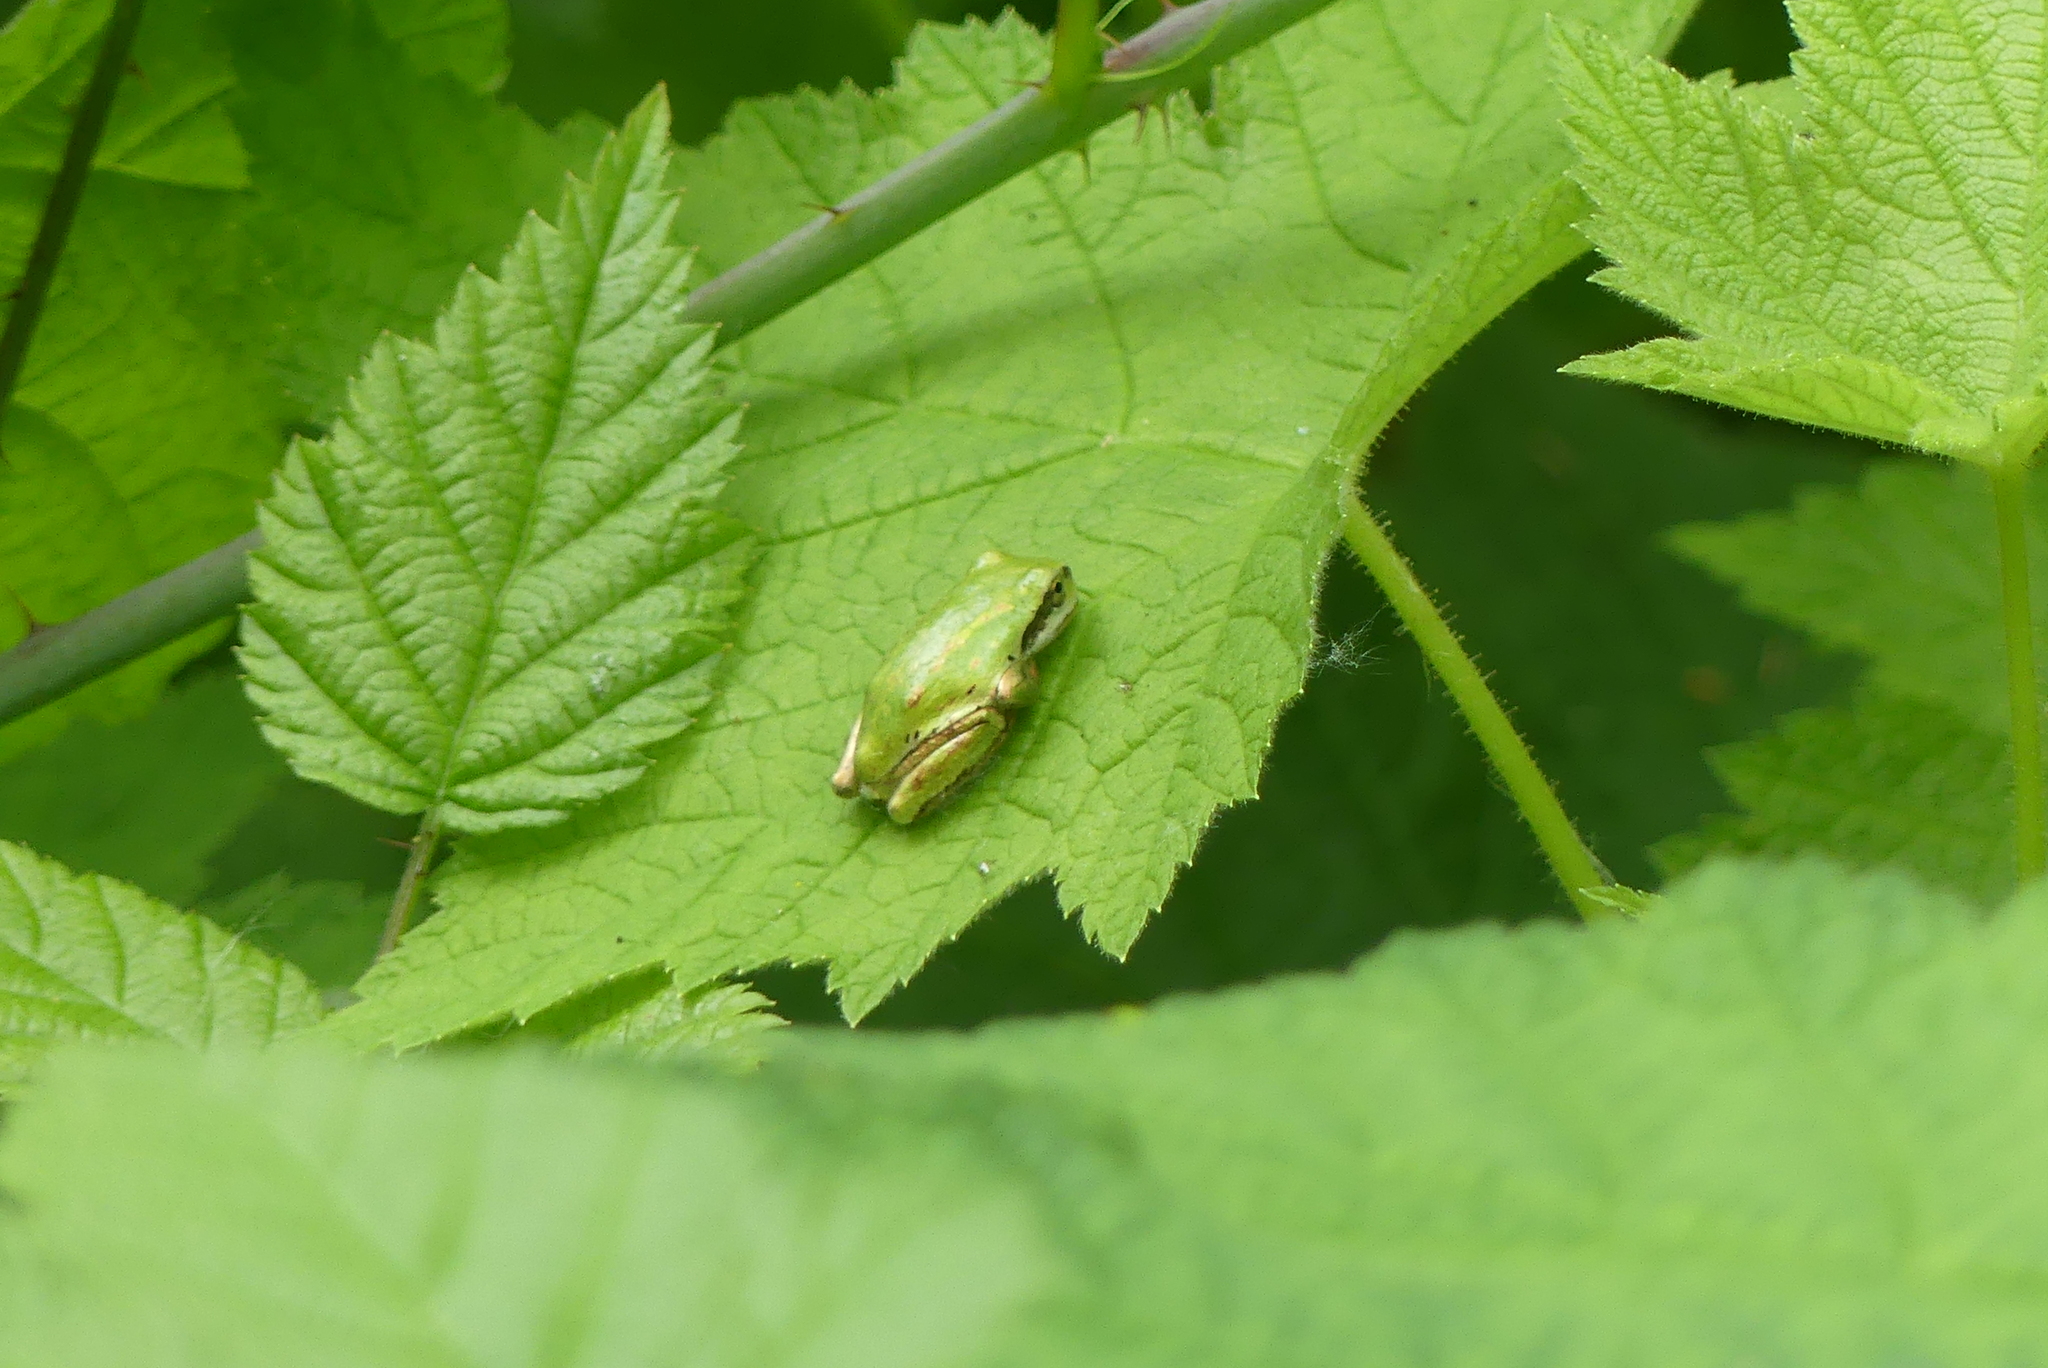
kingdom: Animalia
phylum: Chordata
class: Amphibia
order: Anura
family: Hylidae
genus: Pseudacris
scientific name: Pseudacris regilla
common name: Pacific chorus frog
